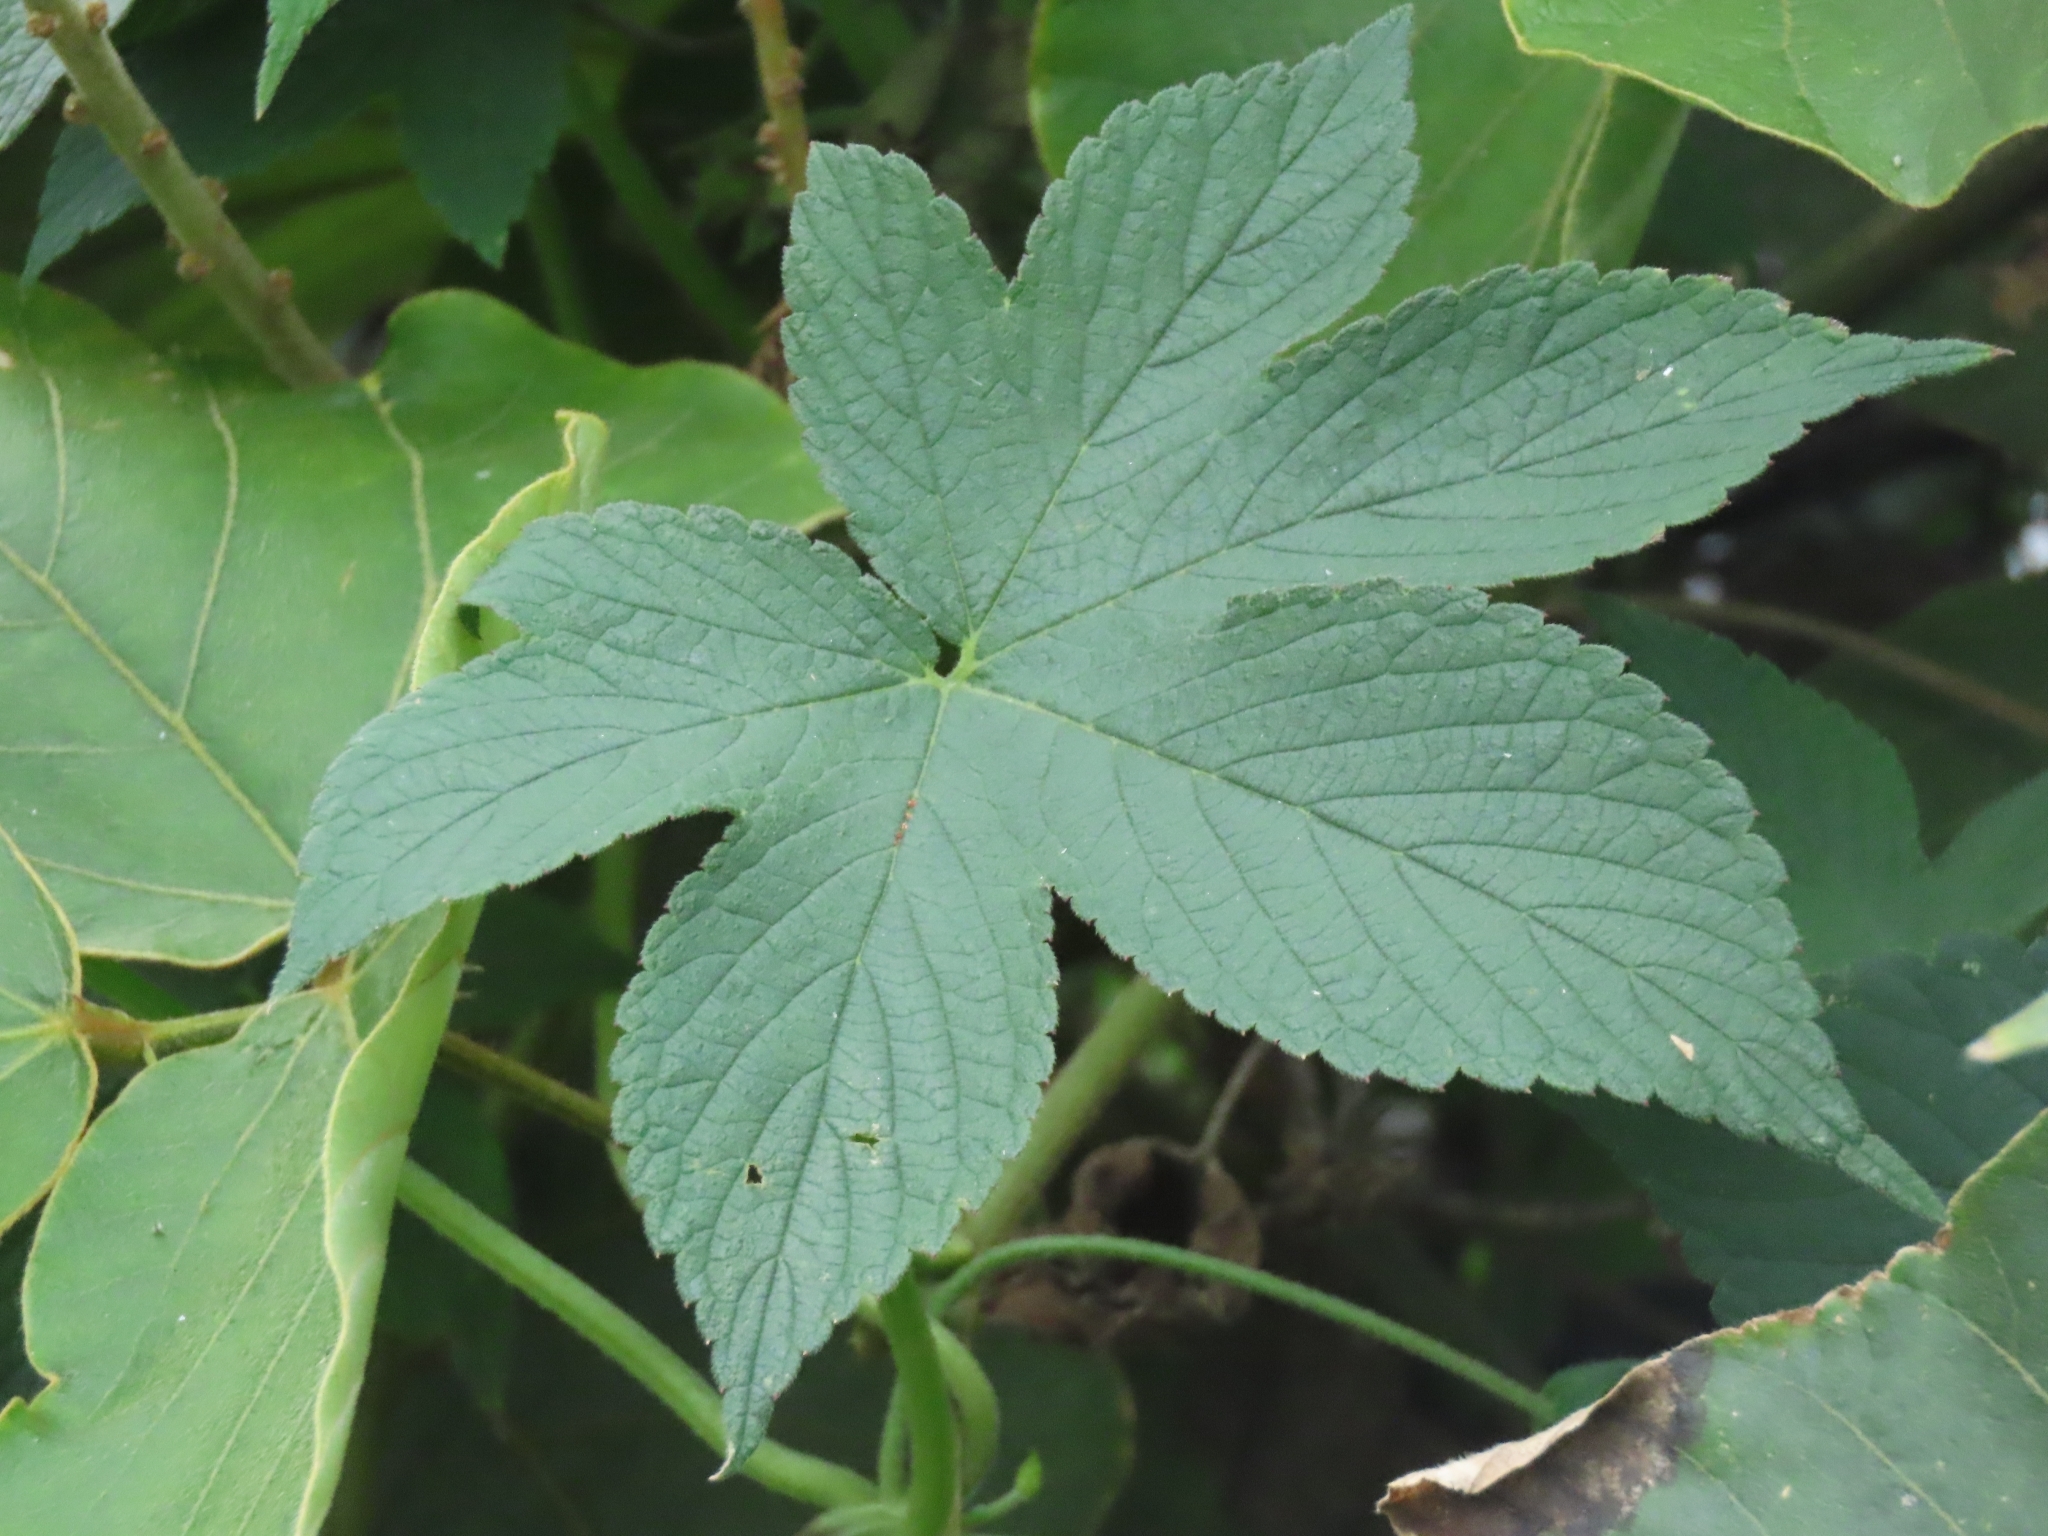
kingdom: Plantae
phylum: Tracheophyta
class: Magnoliopsida
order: Rosales
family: Cannabaceae
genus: Humulus
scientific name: Humulus scandens
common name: Japanese hop
